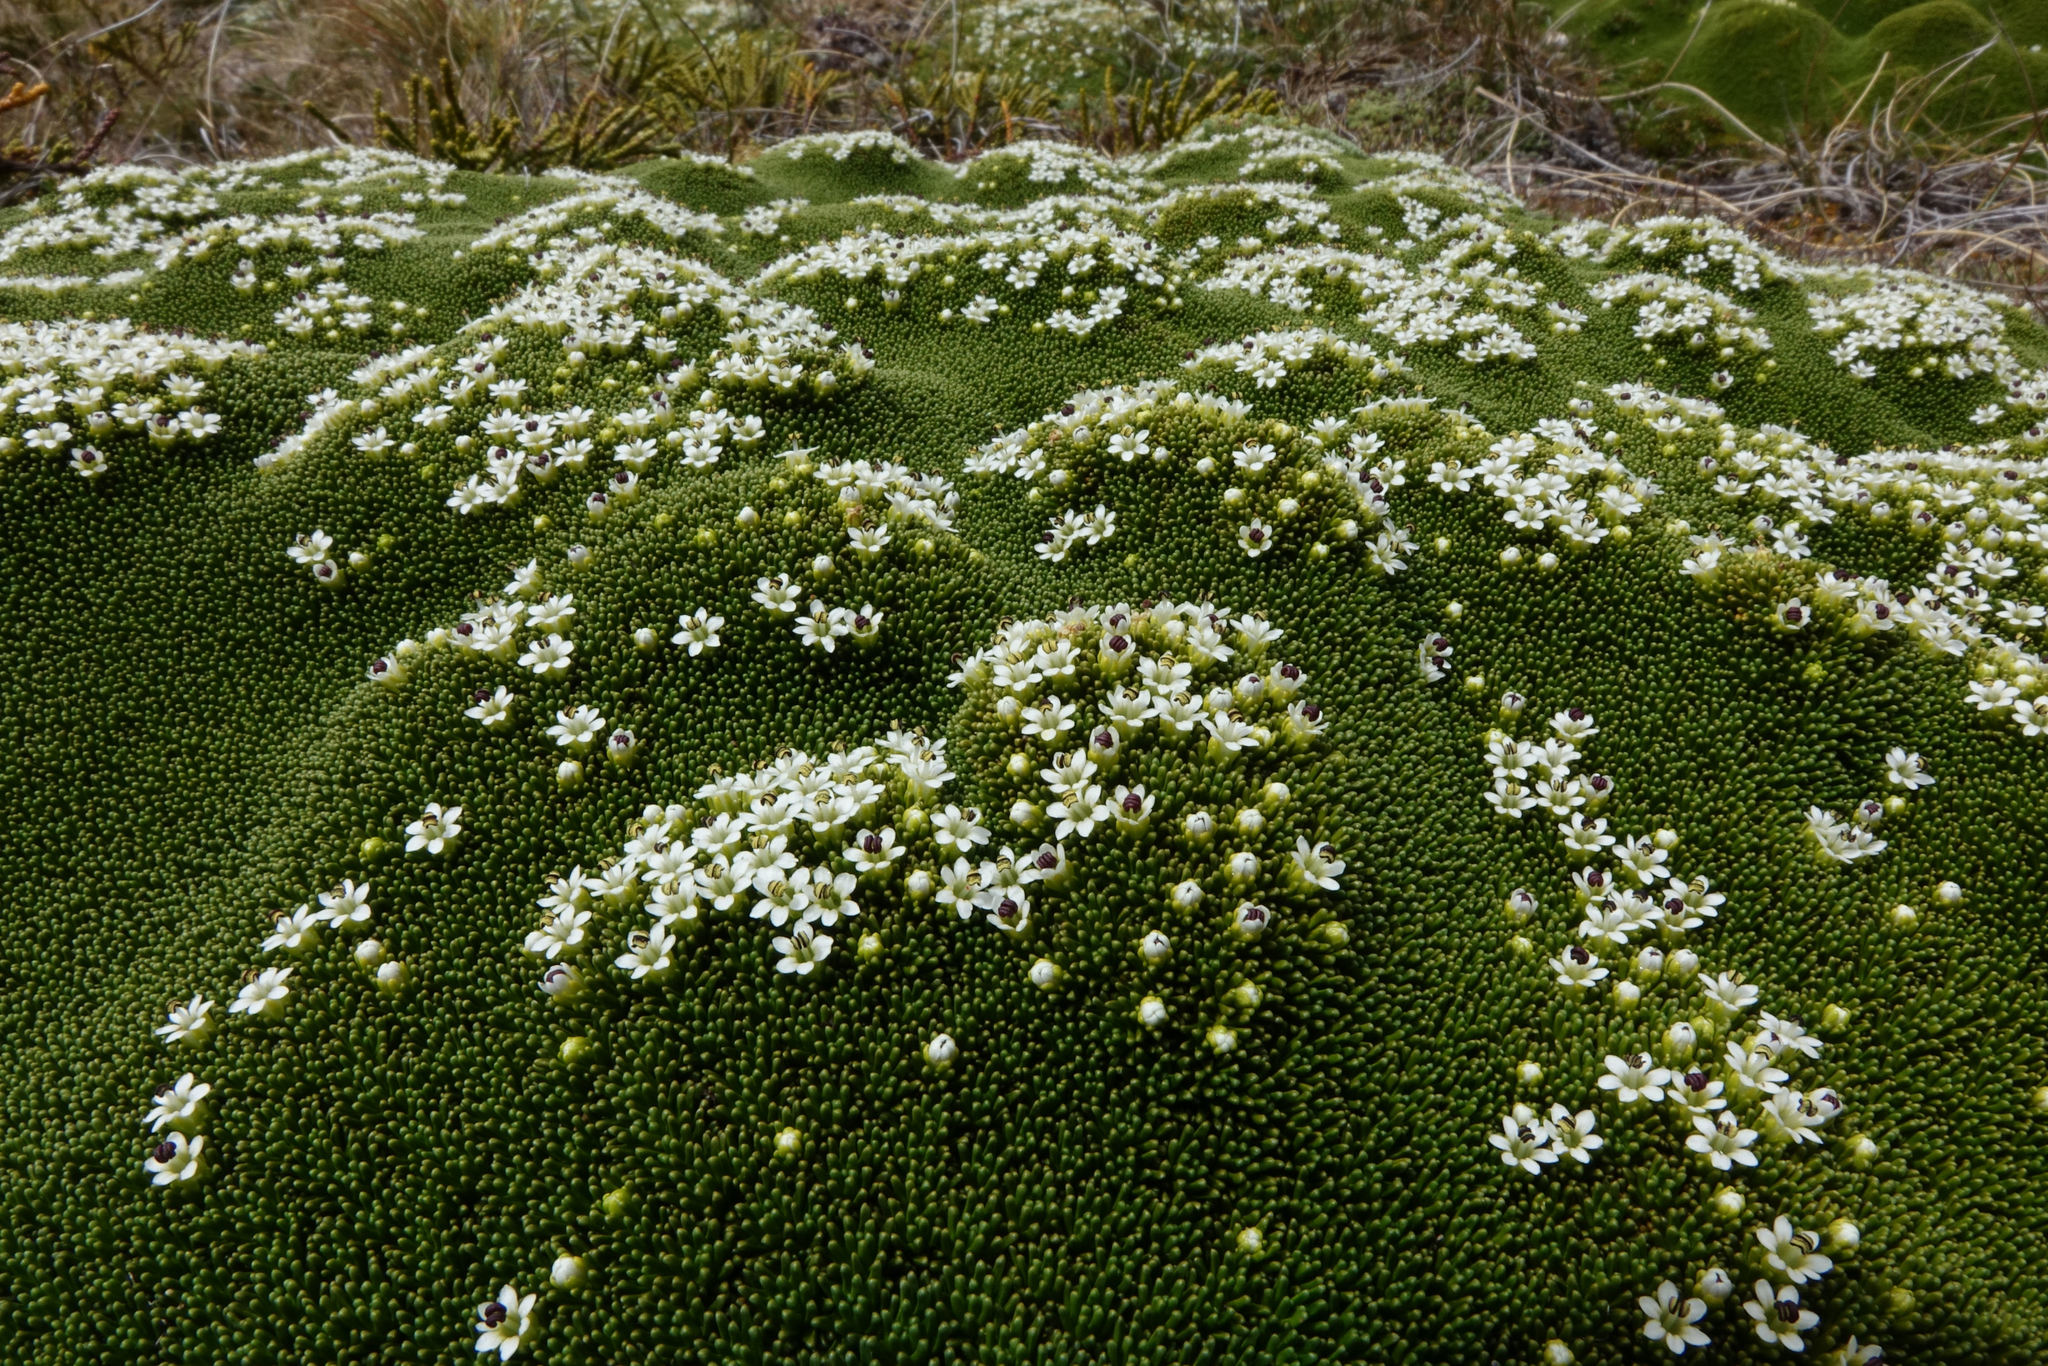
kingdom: Plantae
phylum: Tracheophyta
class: Magnoliopsida
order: Asterales
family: Stylidiaceae
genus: Phyllachne
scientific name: Phyllachne colensoi
